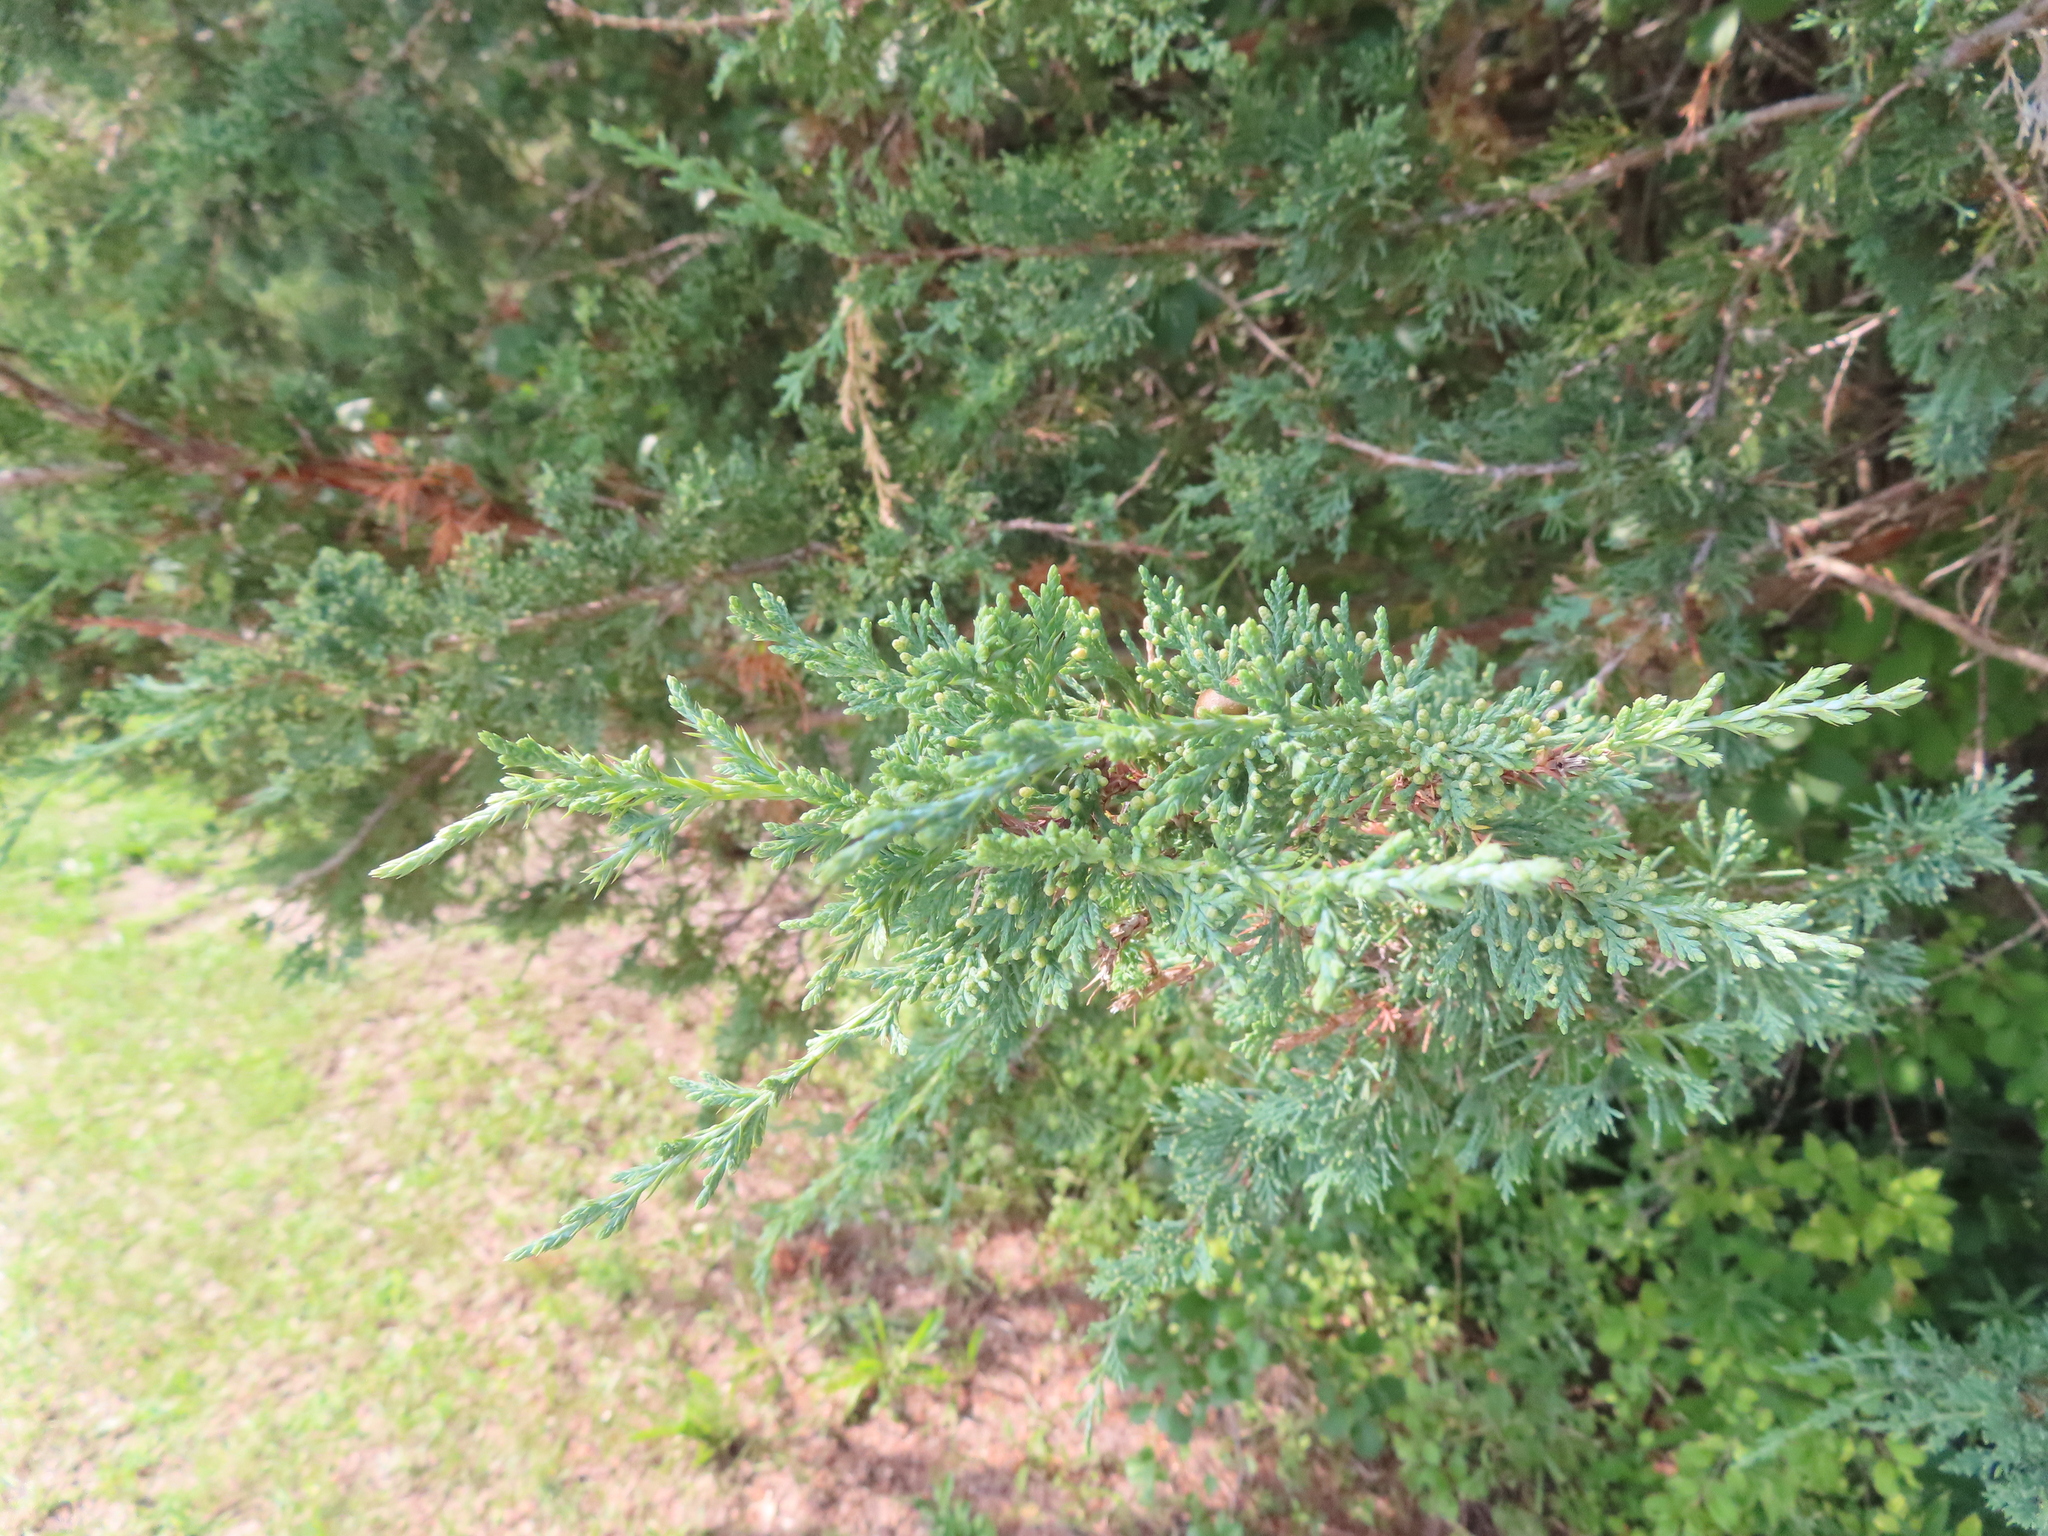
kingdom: Plantae
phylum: Tracheophyta
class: Pinopsida
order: Pinales
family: Cupressaceae
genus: Juniperus
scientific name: Juniperus virginiana
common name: Red juniper
